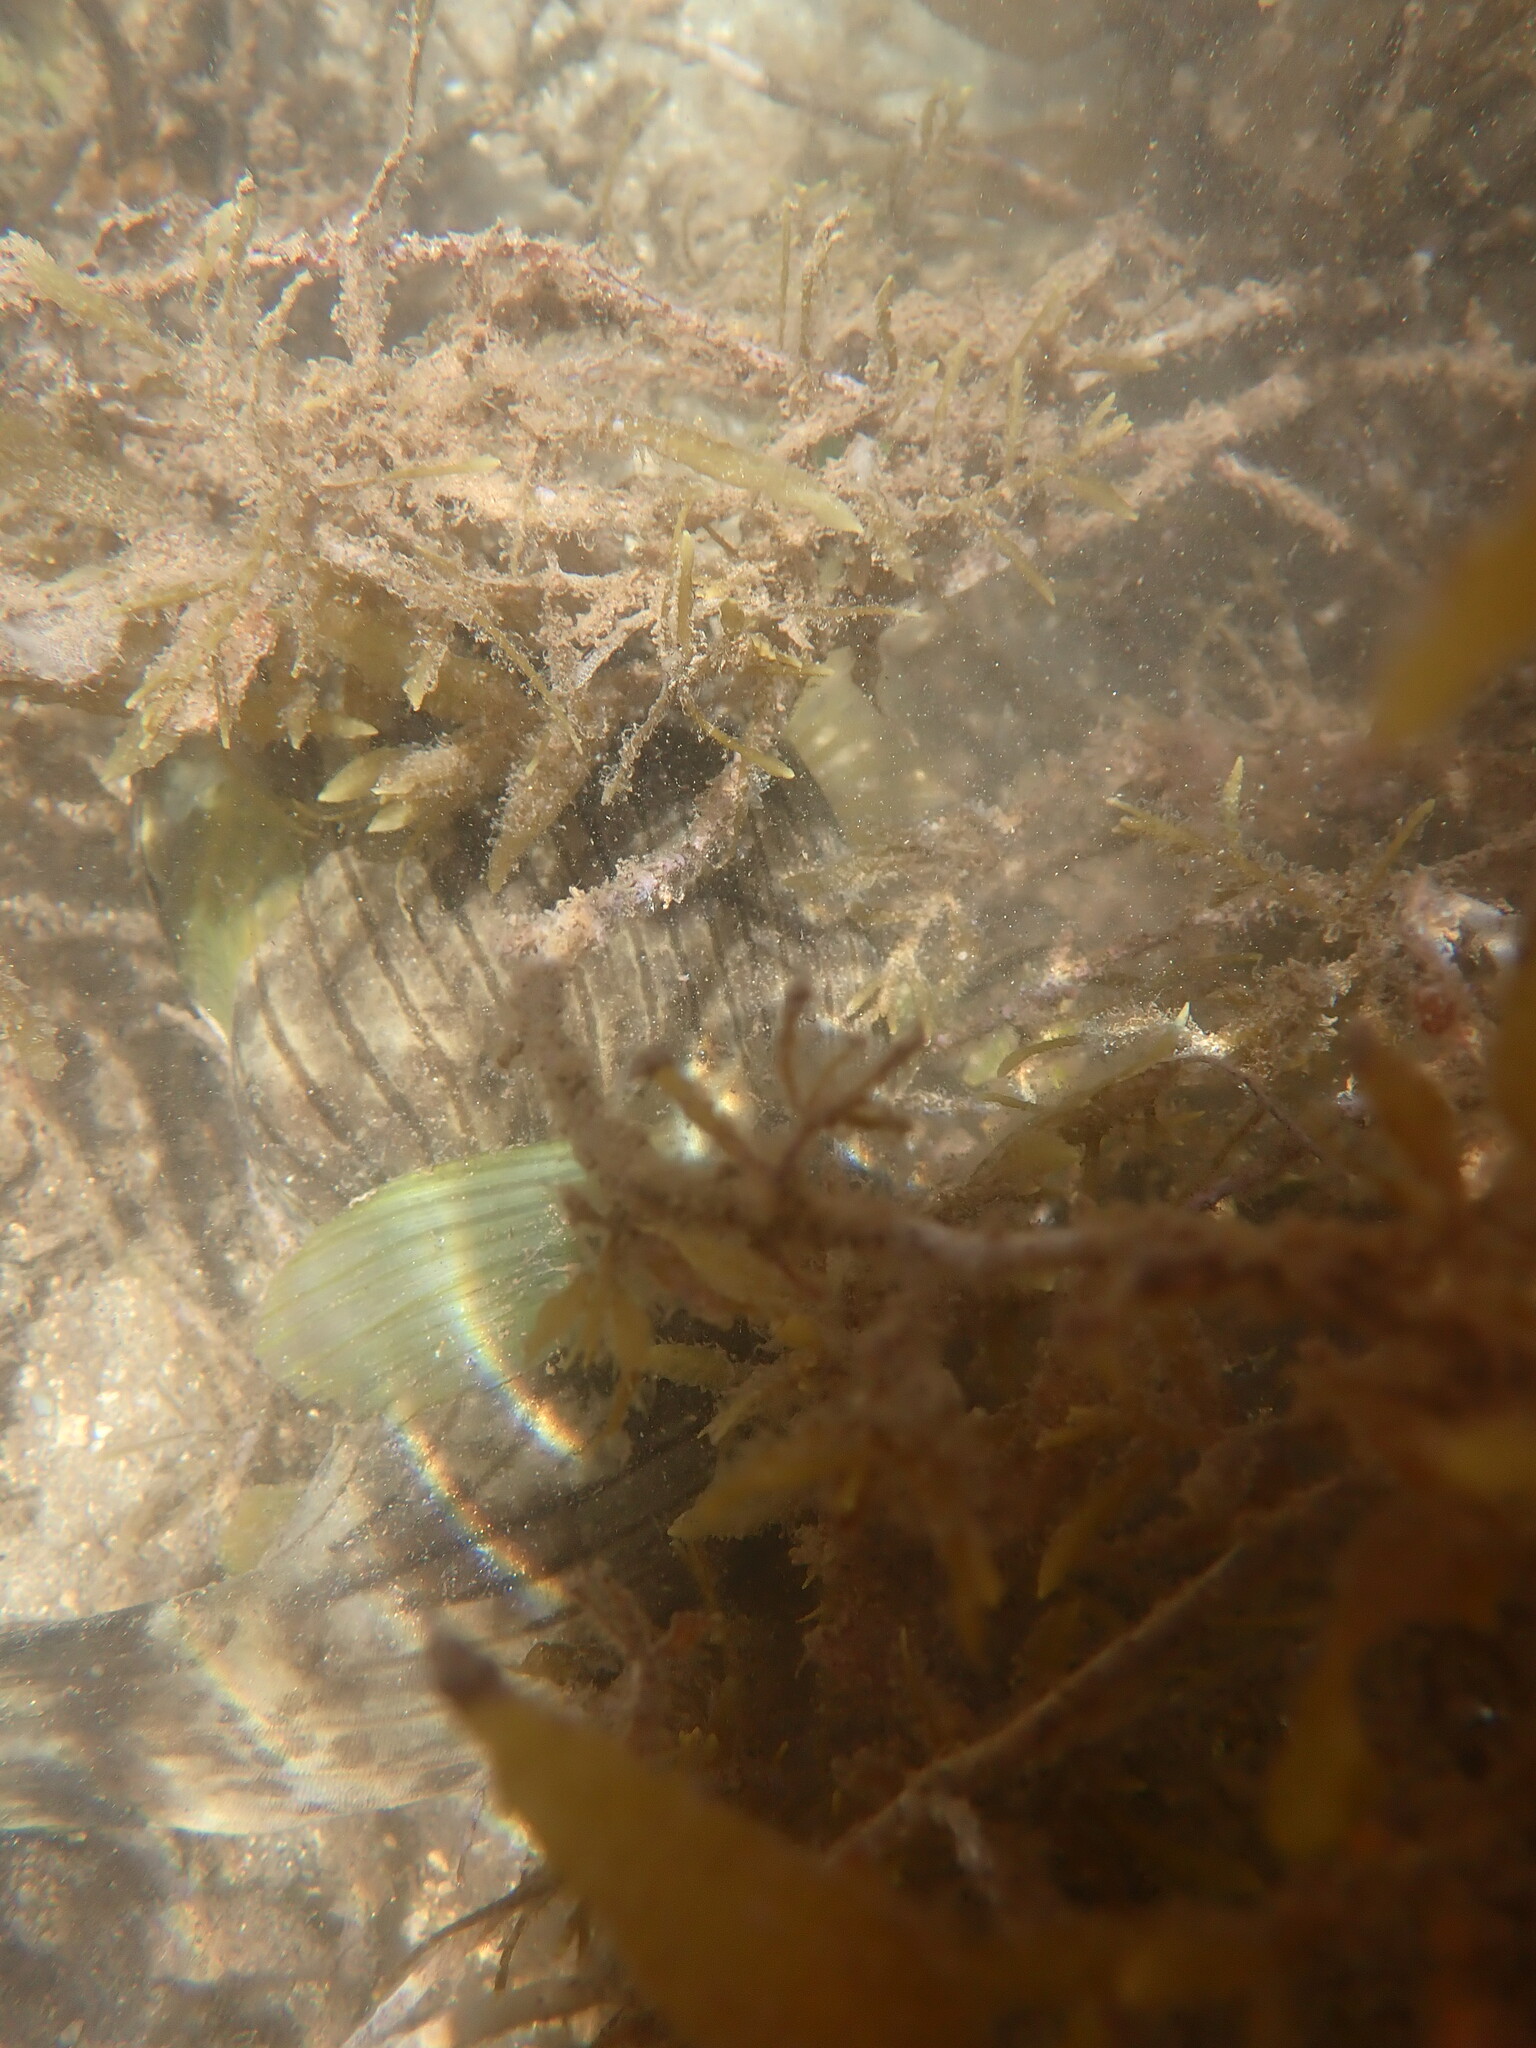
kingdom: Animalia
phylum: Chordata
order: Tetraodontiformes
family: Tetraodontidae
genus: Arothron
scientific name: Arothron manilensis
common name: Narrow-lined puffer
